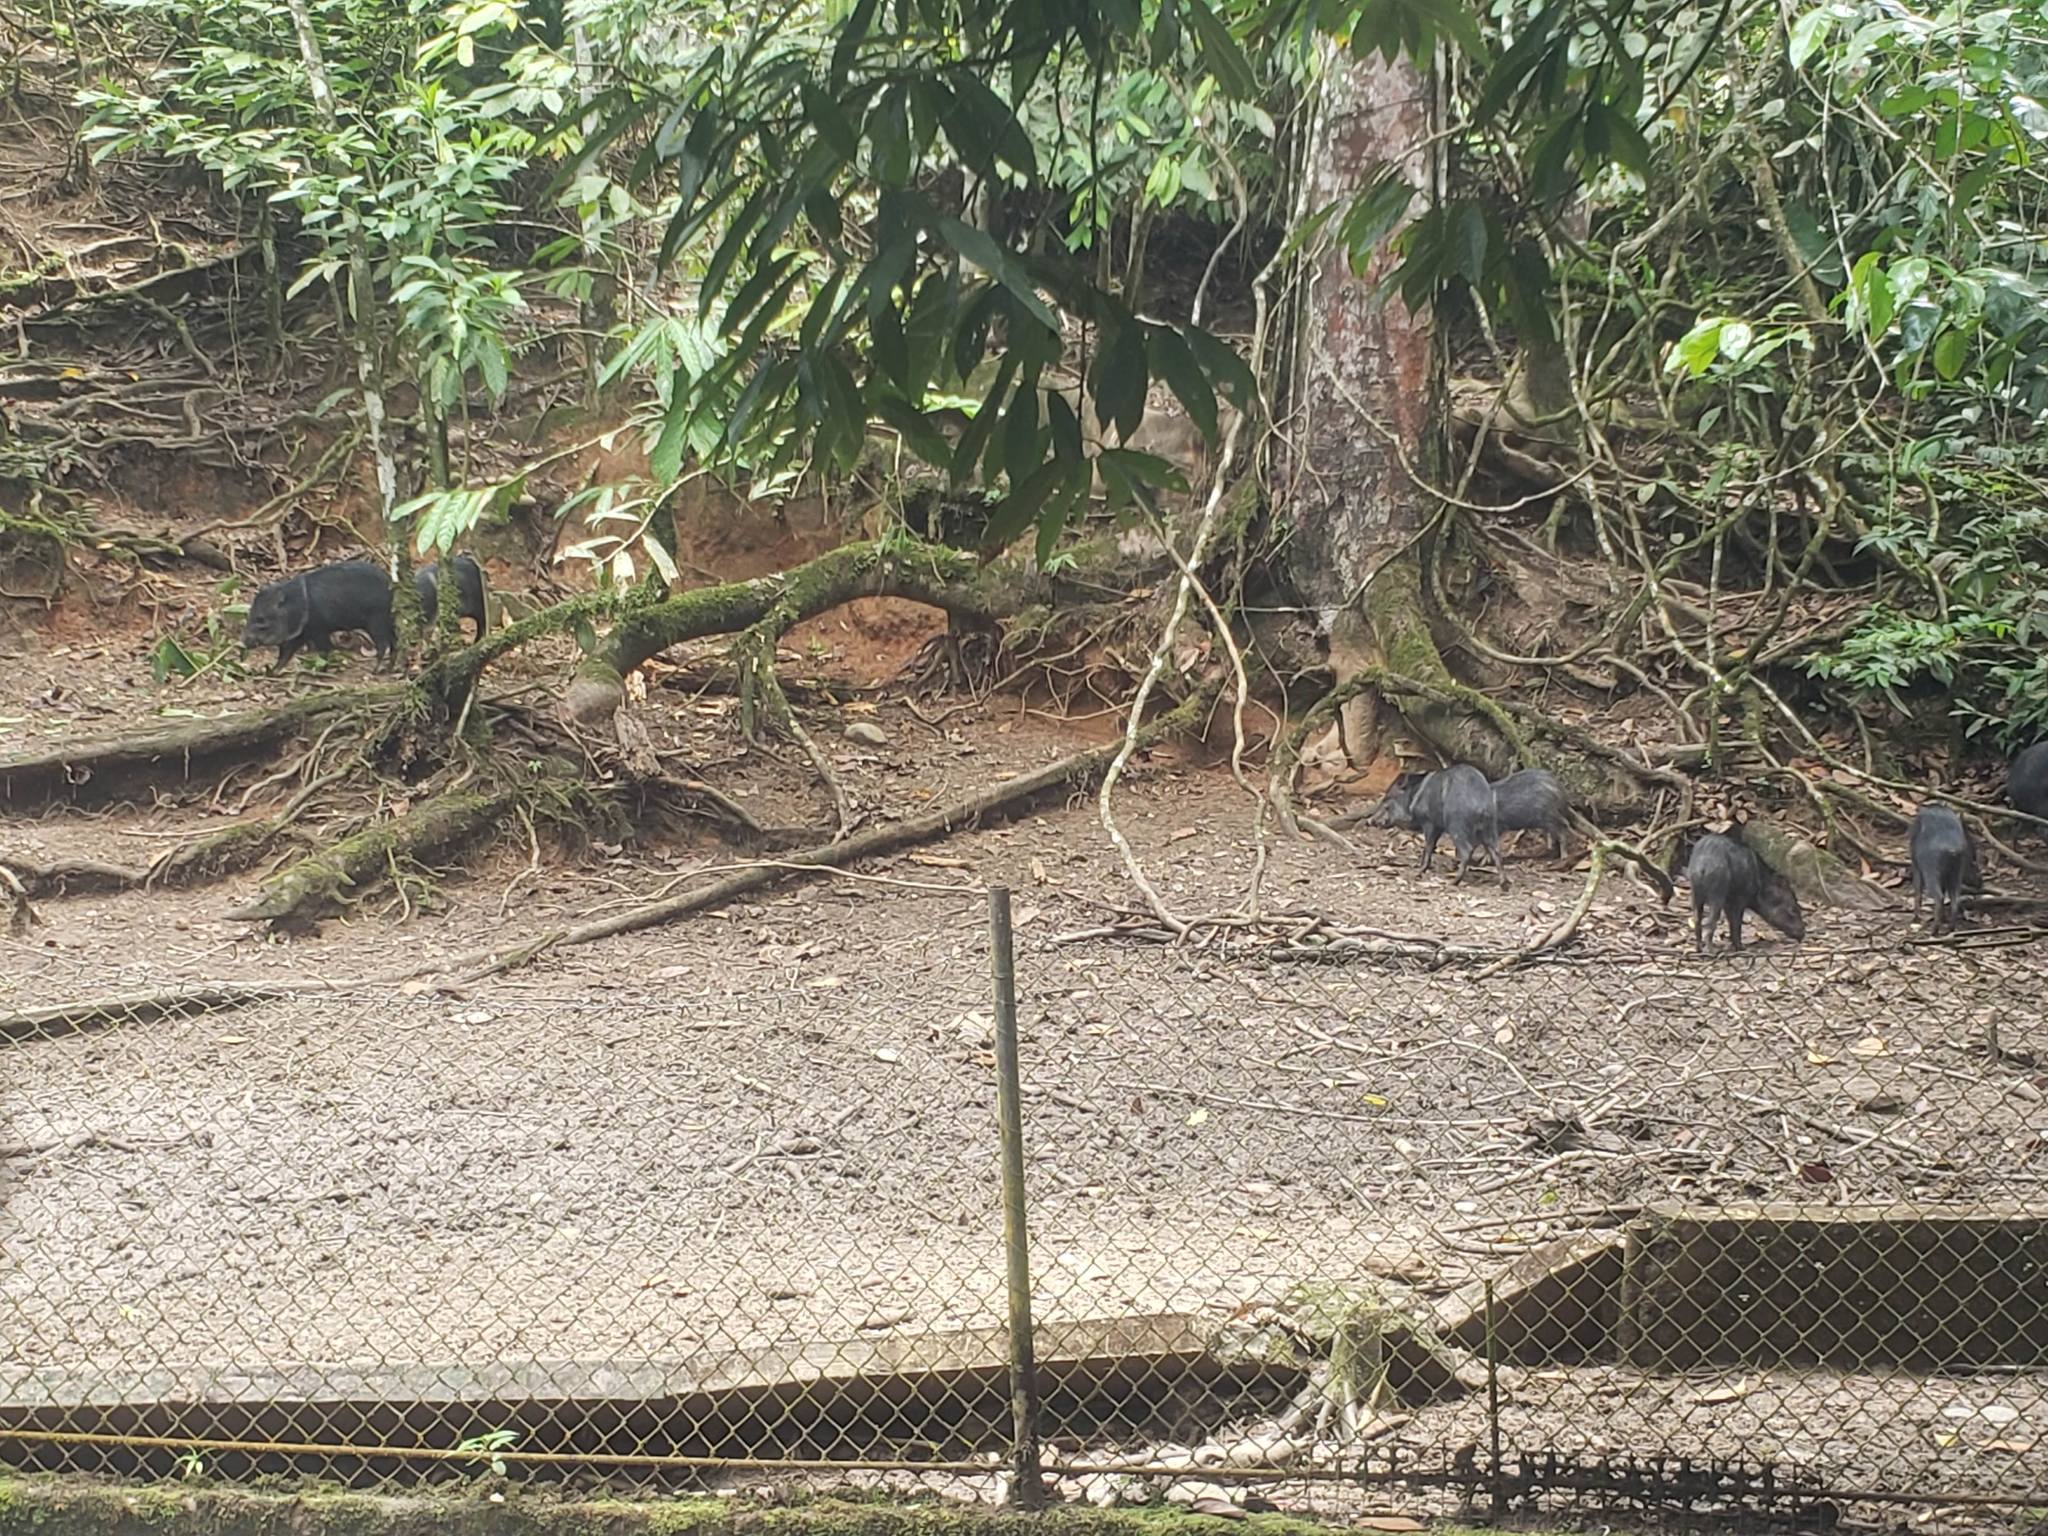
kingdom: Animalia
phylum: Chordata
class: Mammalia
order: Artiodactyla
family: Tayassuidae
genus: Pecari
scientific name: Pecari tajacu
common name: Collared peccary
